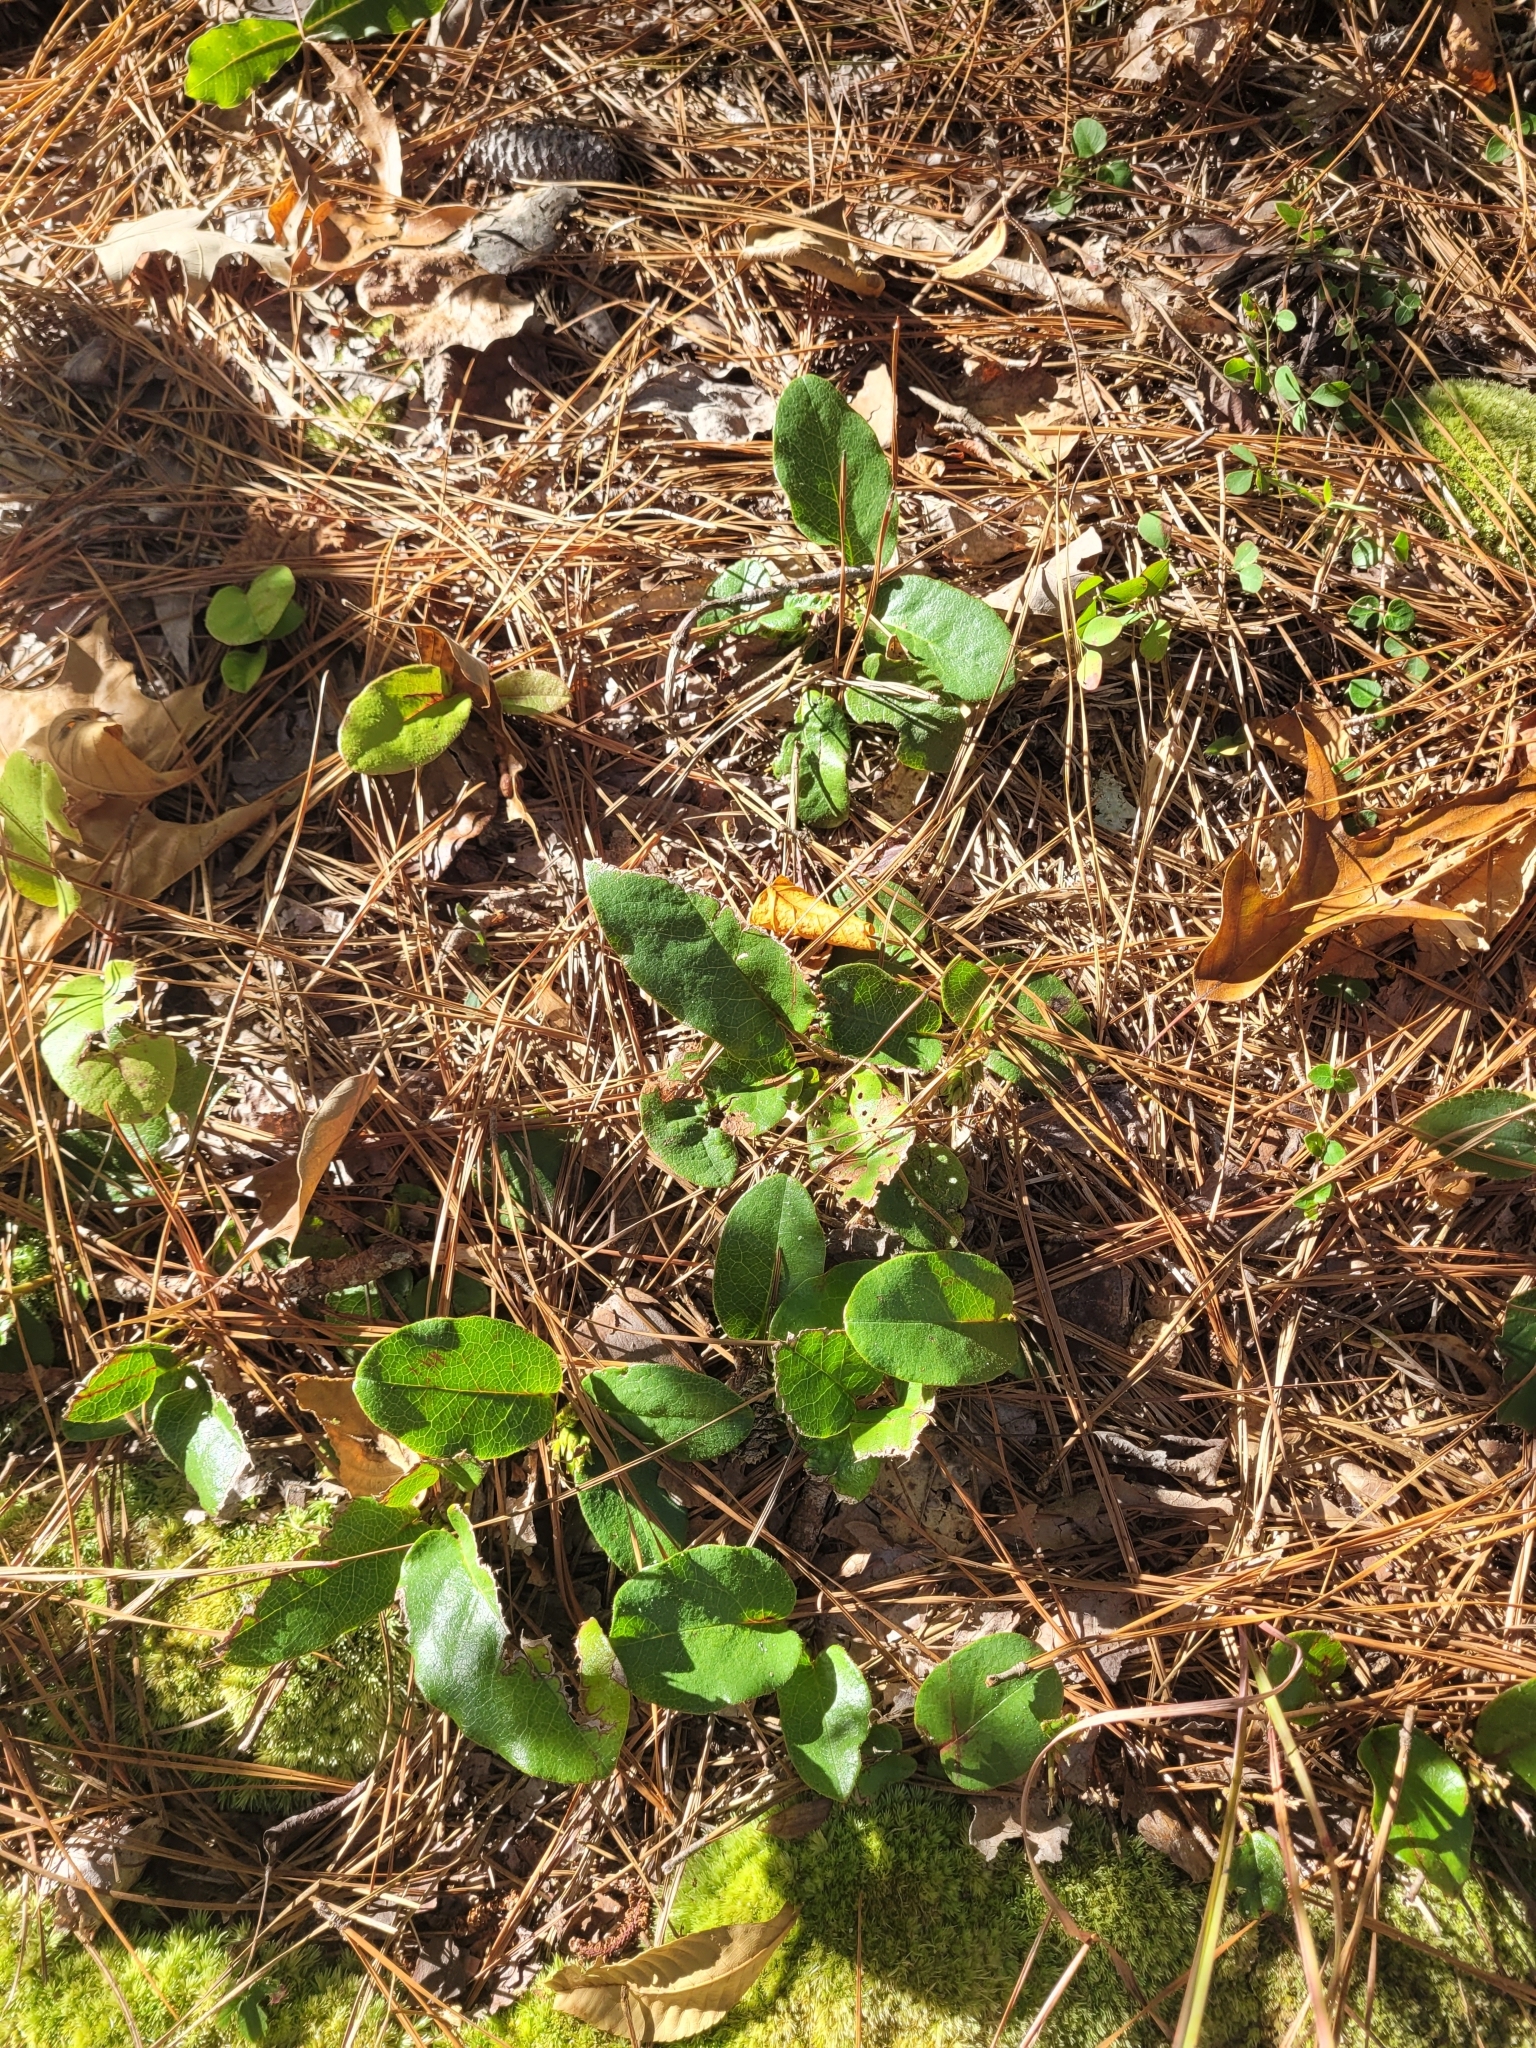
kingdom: Plantae
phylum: Tracheophyta
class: Magnoliopsida
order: Ericales
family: Ericaceae
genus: Epigaea
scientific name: Epigaea repens
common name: Gravelroot
